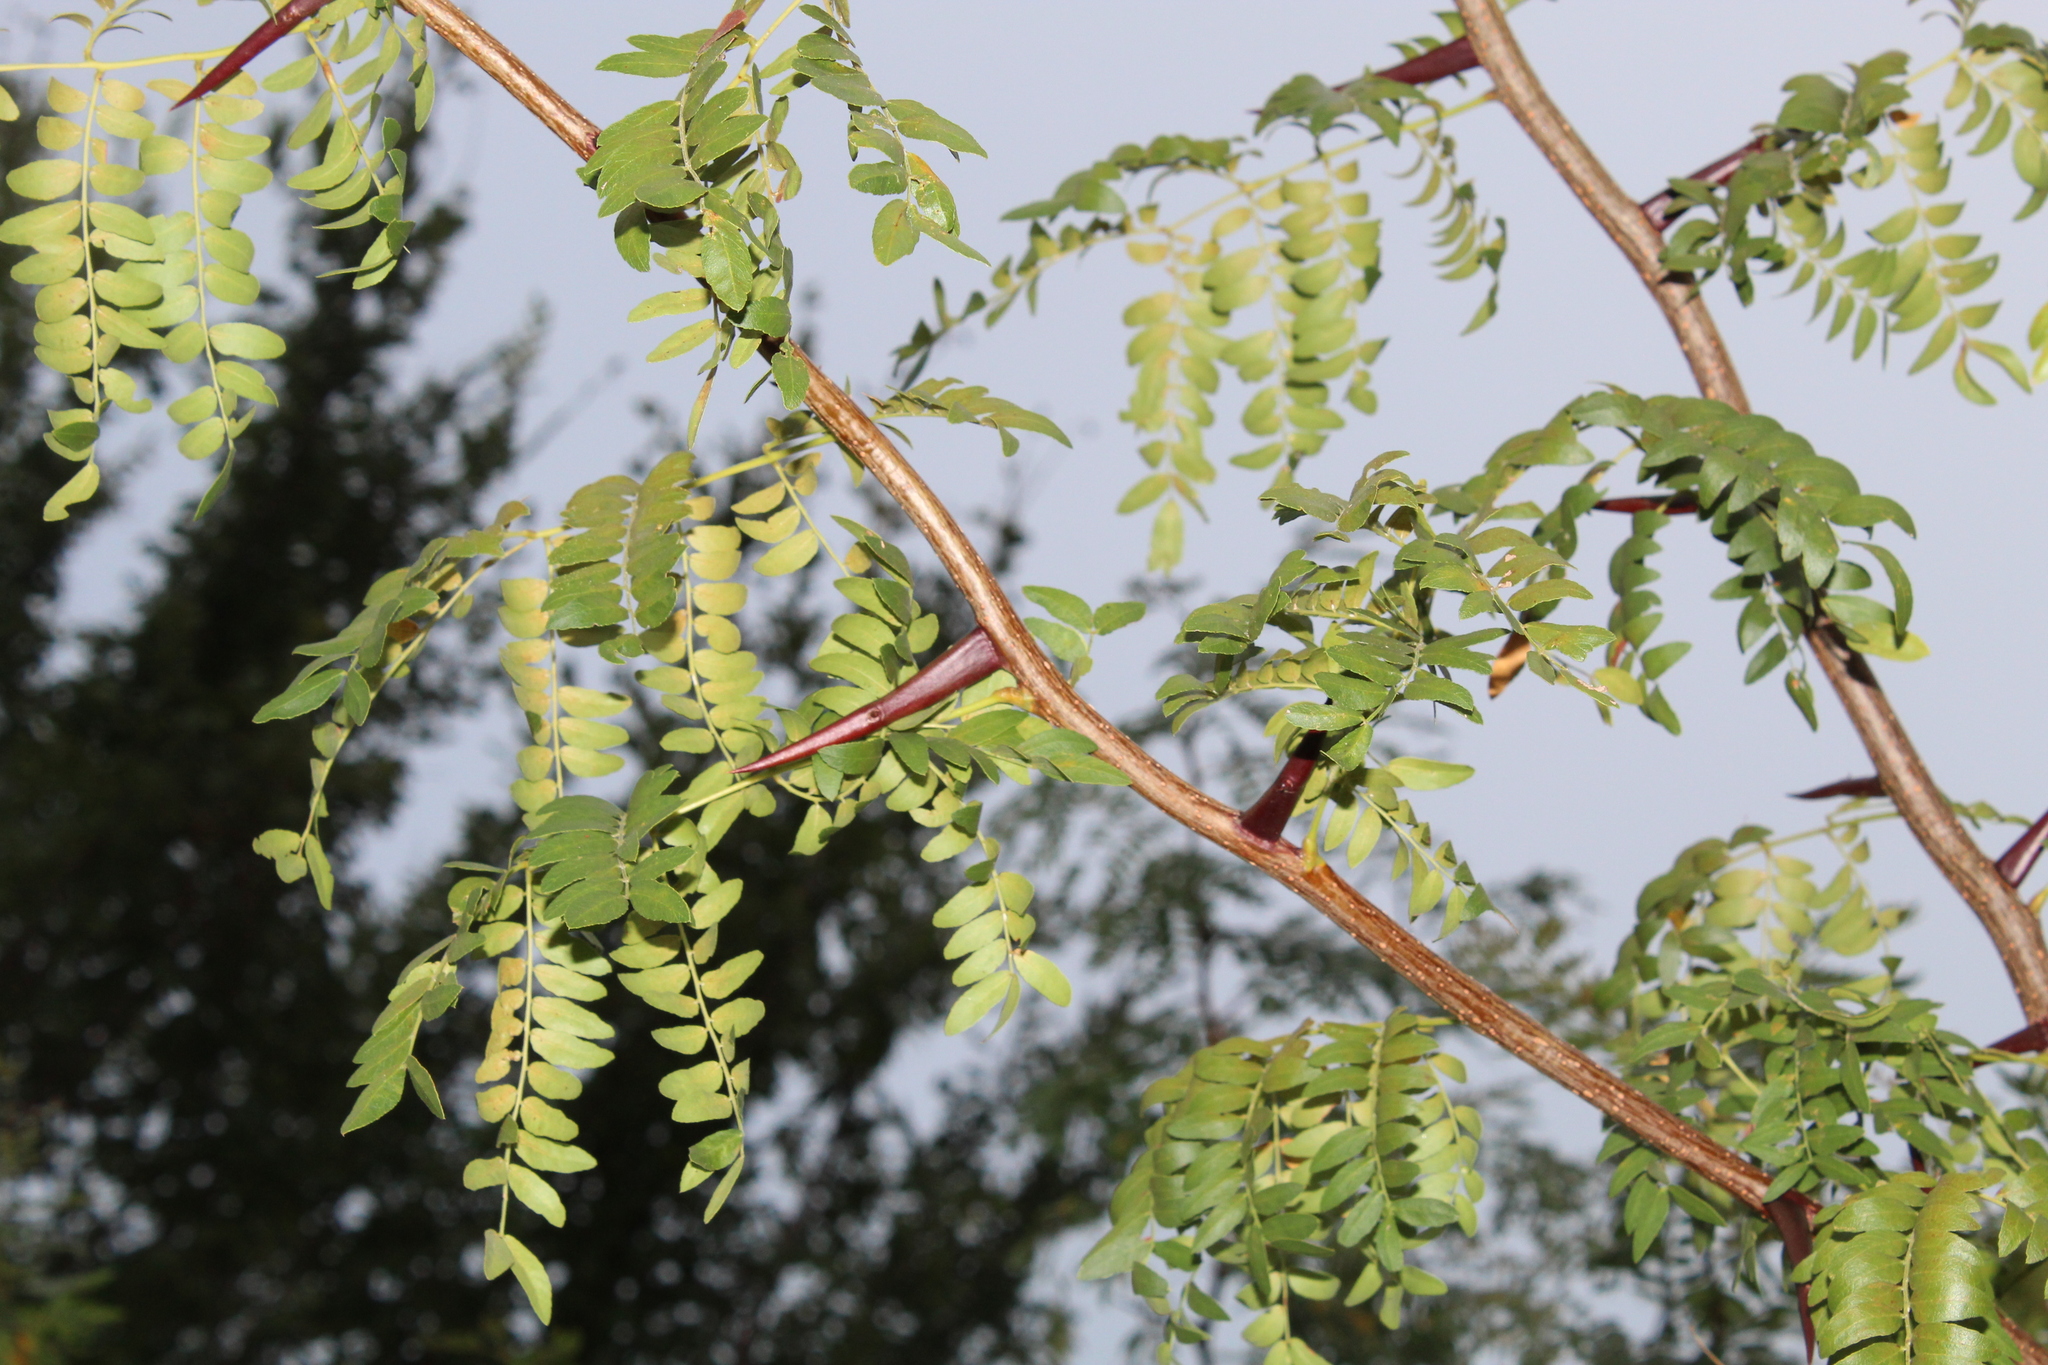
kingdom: Plantae
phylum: Tracheophyta
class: Magnoliopsida
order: Fabales
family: Fabaceae
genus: Gleditsia
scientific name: Gleditsia triacanthos
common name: Common honeylocust
